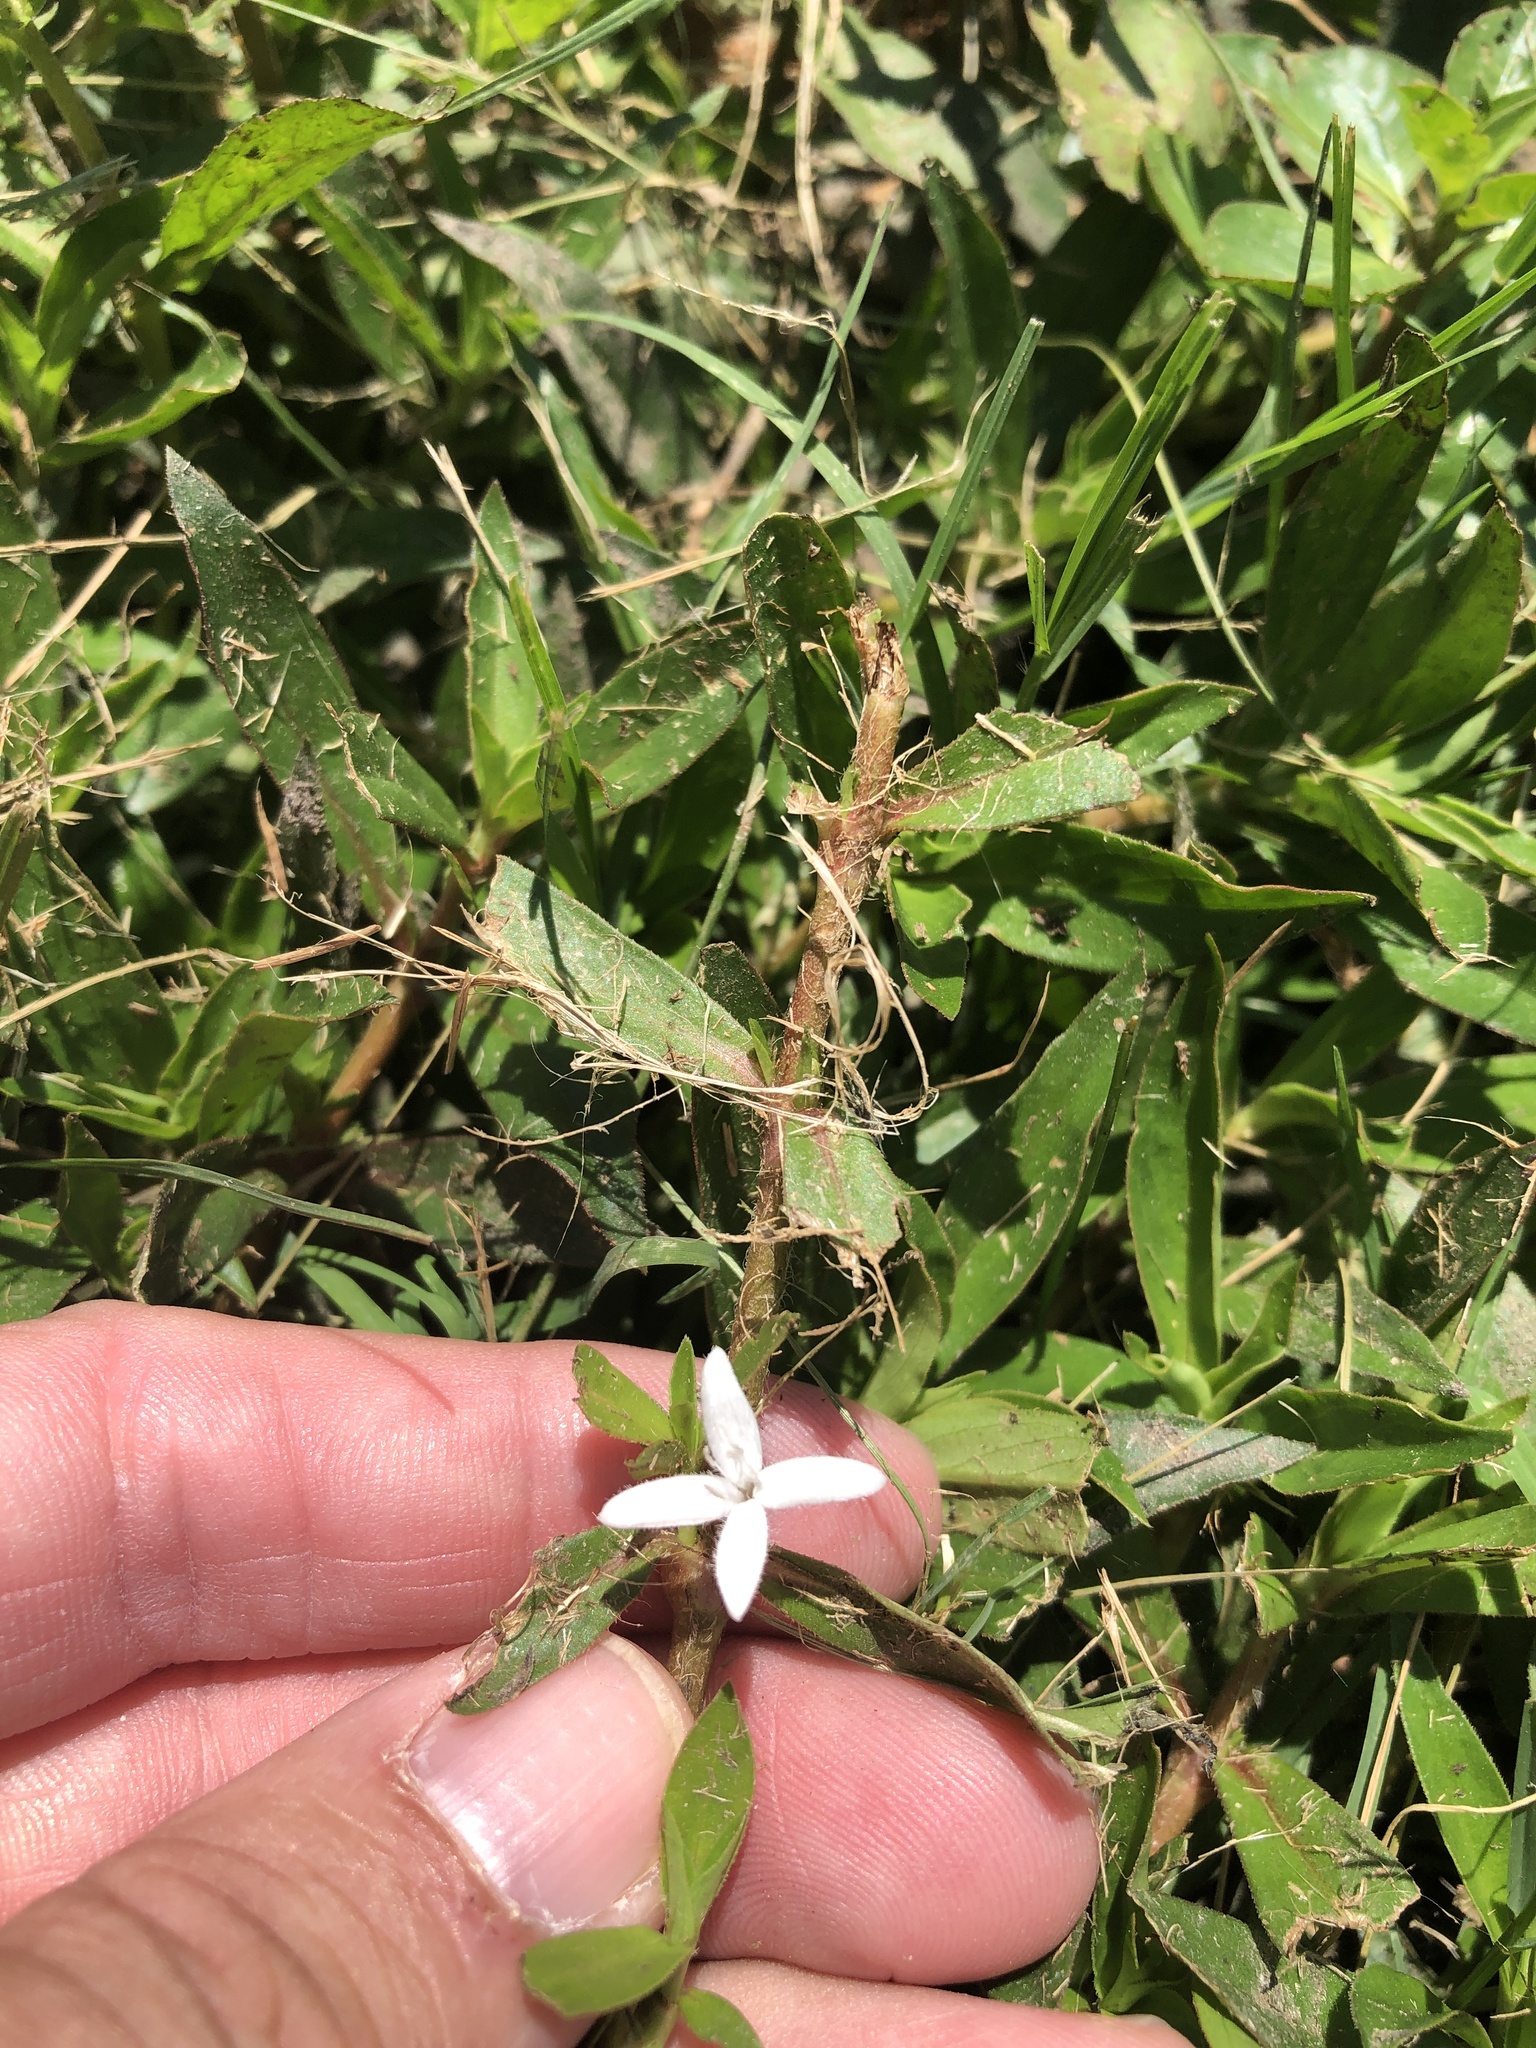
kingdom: Plantae
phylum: Tracheophyta
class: Magnoliopsida
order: Gentianales
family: Rubiaceae
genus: Diodia
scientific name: Diodia virginiana
